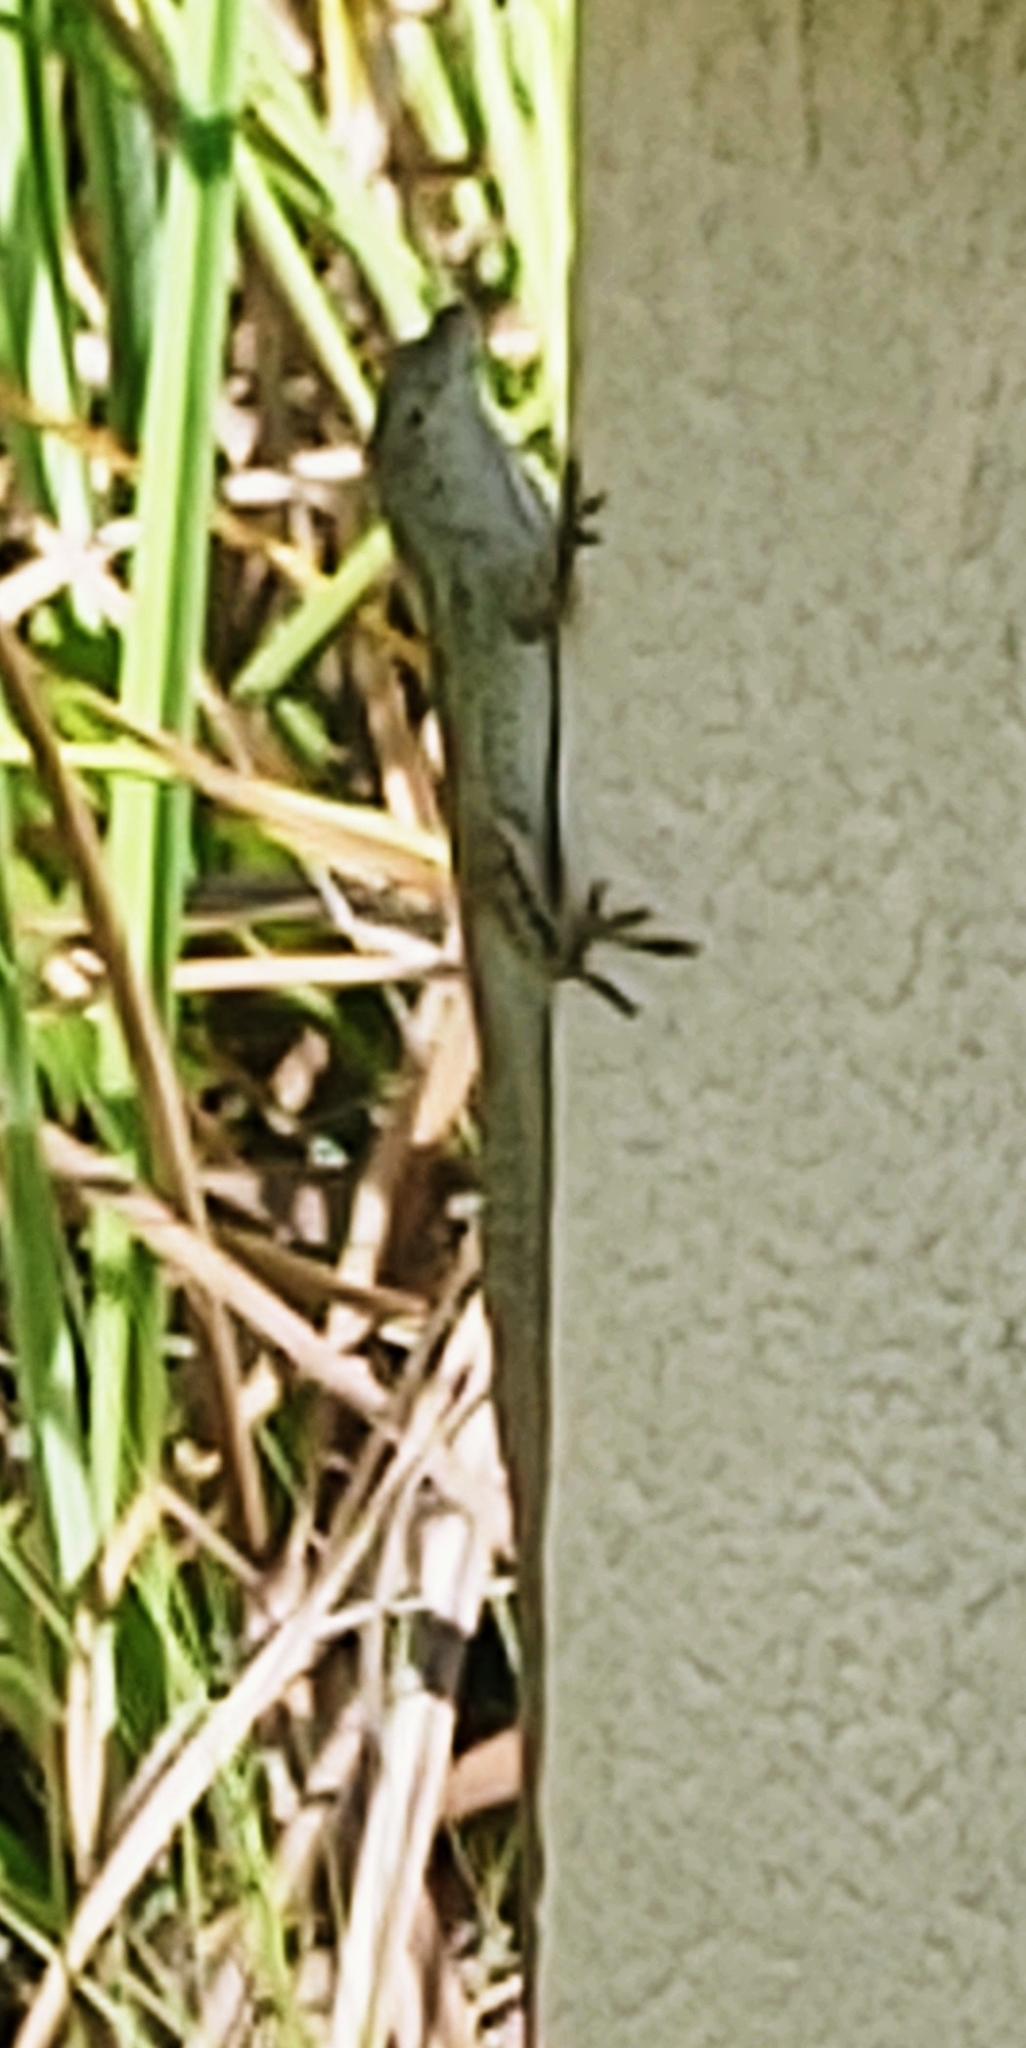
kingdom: Animalia
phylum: Chordata
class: Squamata
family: Dactyloidae
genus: Anolis
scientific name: Anolis sagrei
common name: Brown anole
